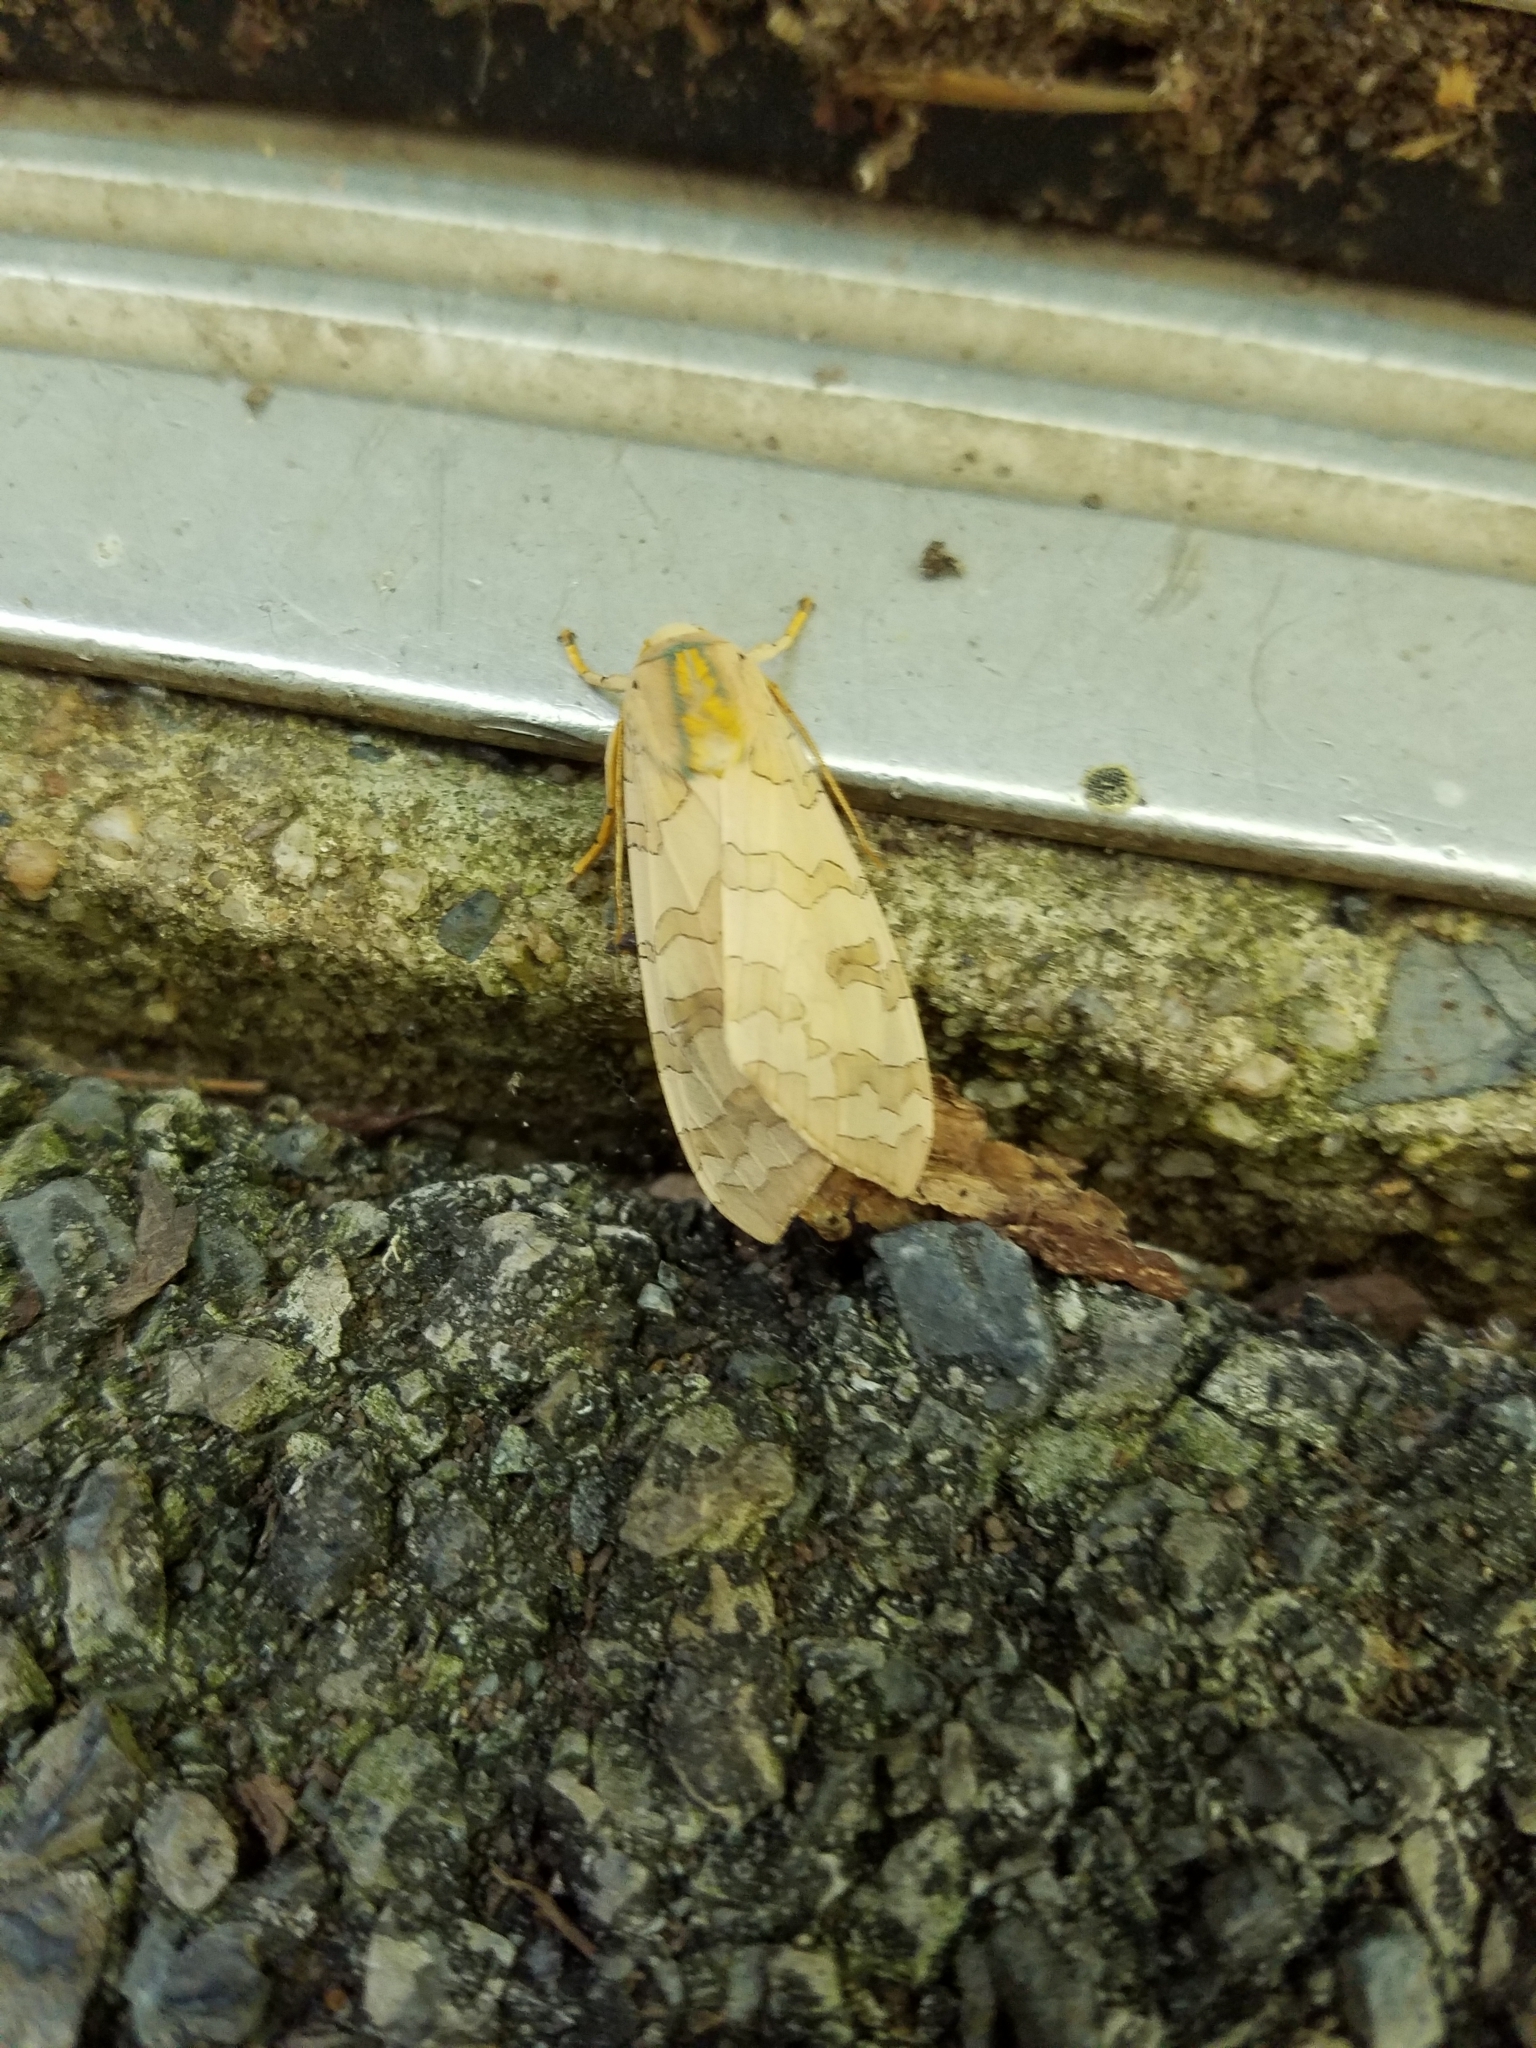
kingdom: Animalia
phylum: Arthropoda
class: Insecta
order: Lepidoptera
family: Erebidae
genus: Halysidota
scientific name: Halysidota
